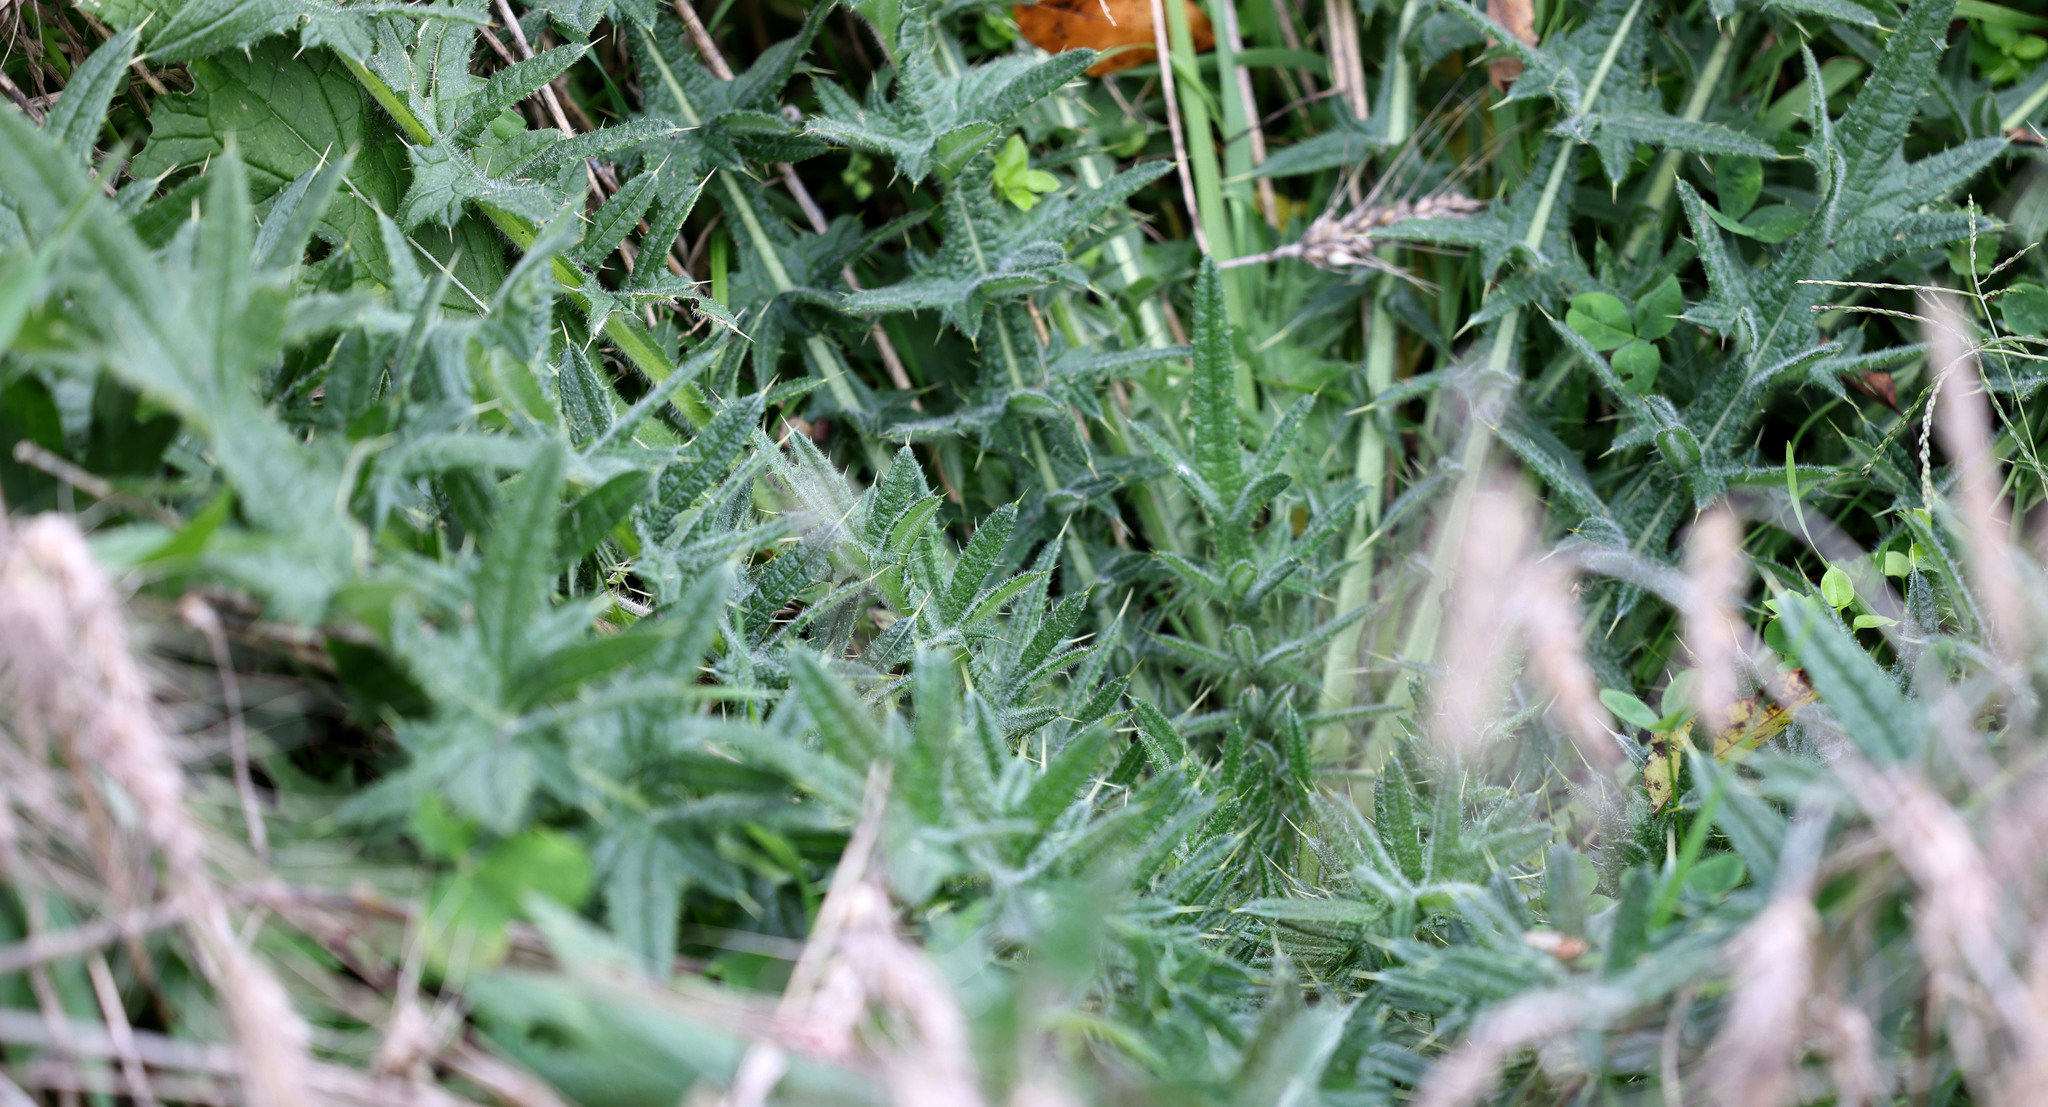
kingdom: Plantae
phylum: Tracheophyta
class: Magnoliopsida
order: Asterales
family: Asteraceae
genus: Cirsium
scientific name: Cirsium vulgare
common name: Bull thistle
